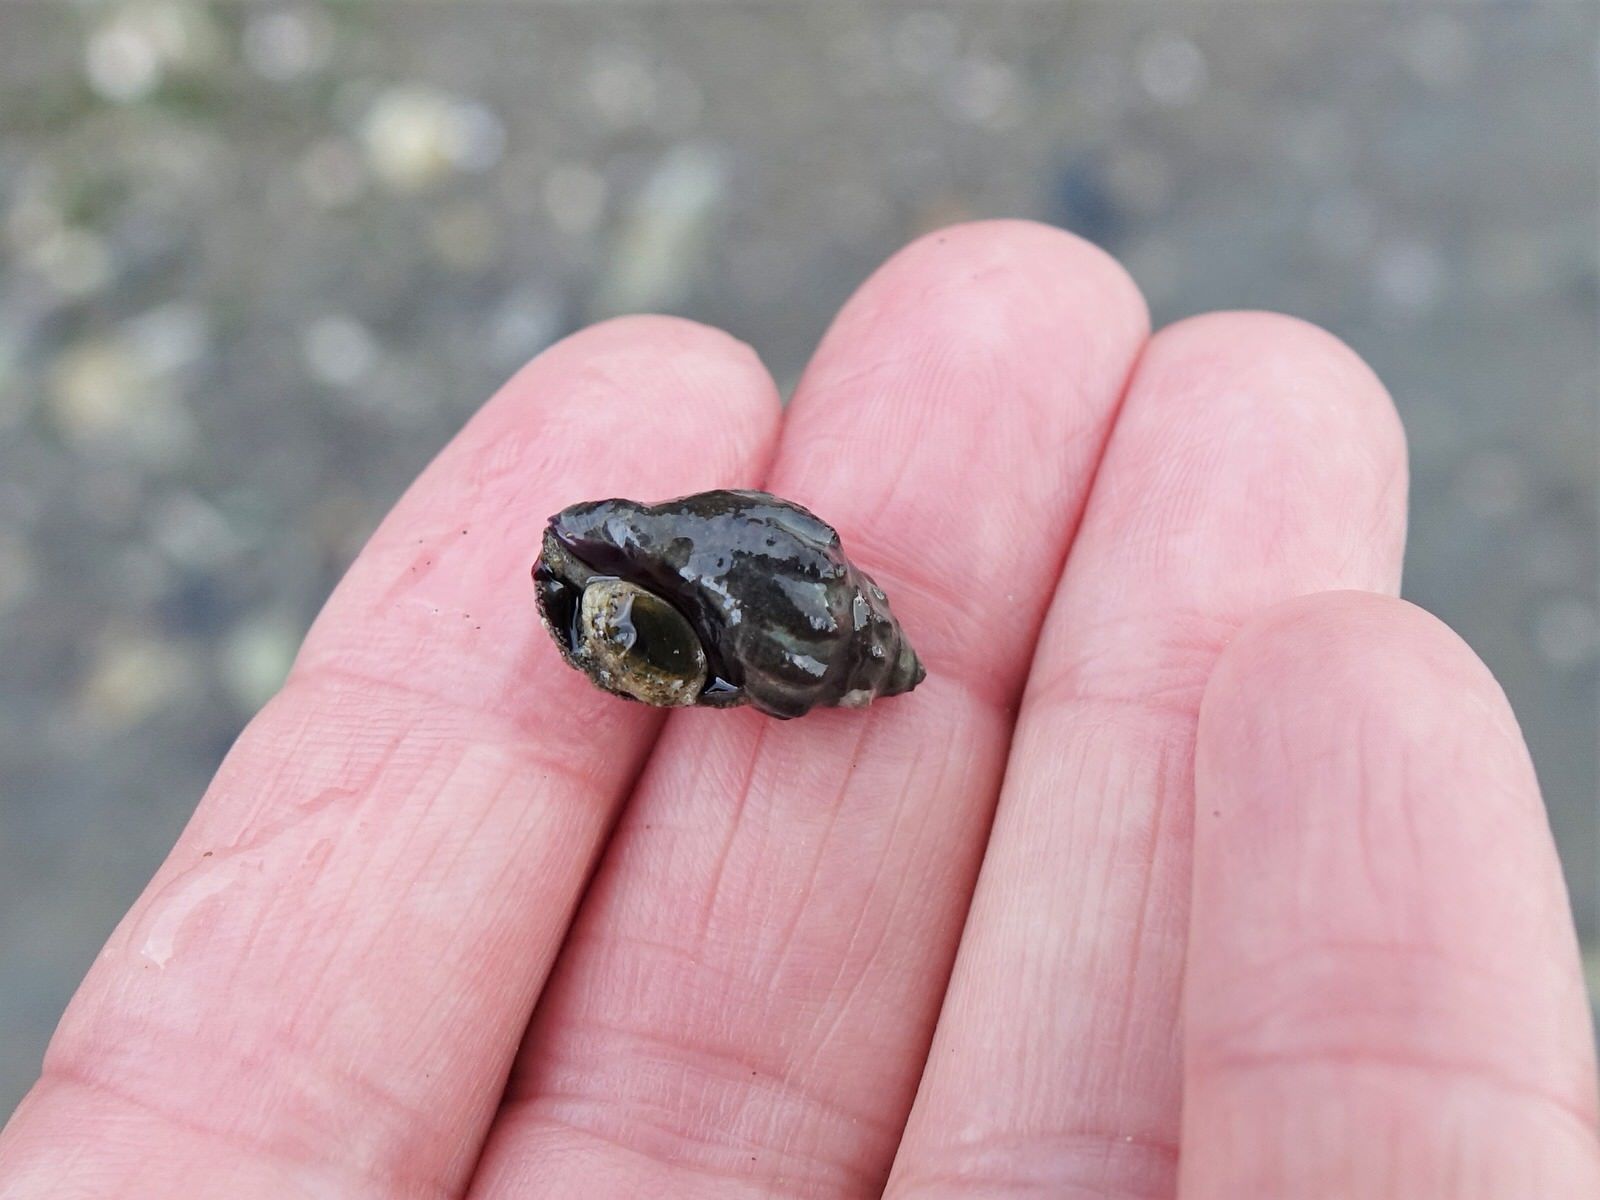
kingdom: Animalia
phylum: Mollusca
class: Gastropoda
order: Neogastropoda
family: Cominellidae
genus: Cominella
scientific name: Cominella glandiformis
